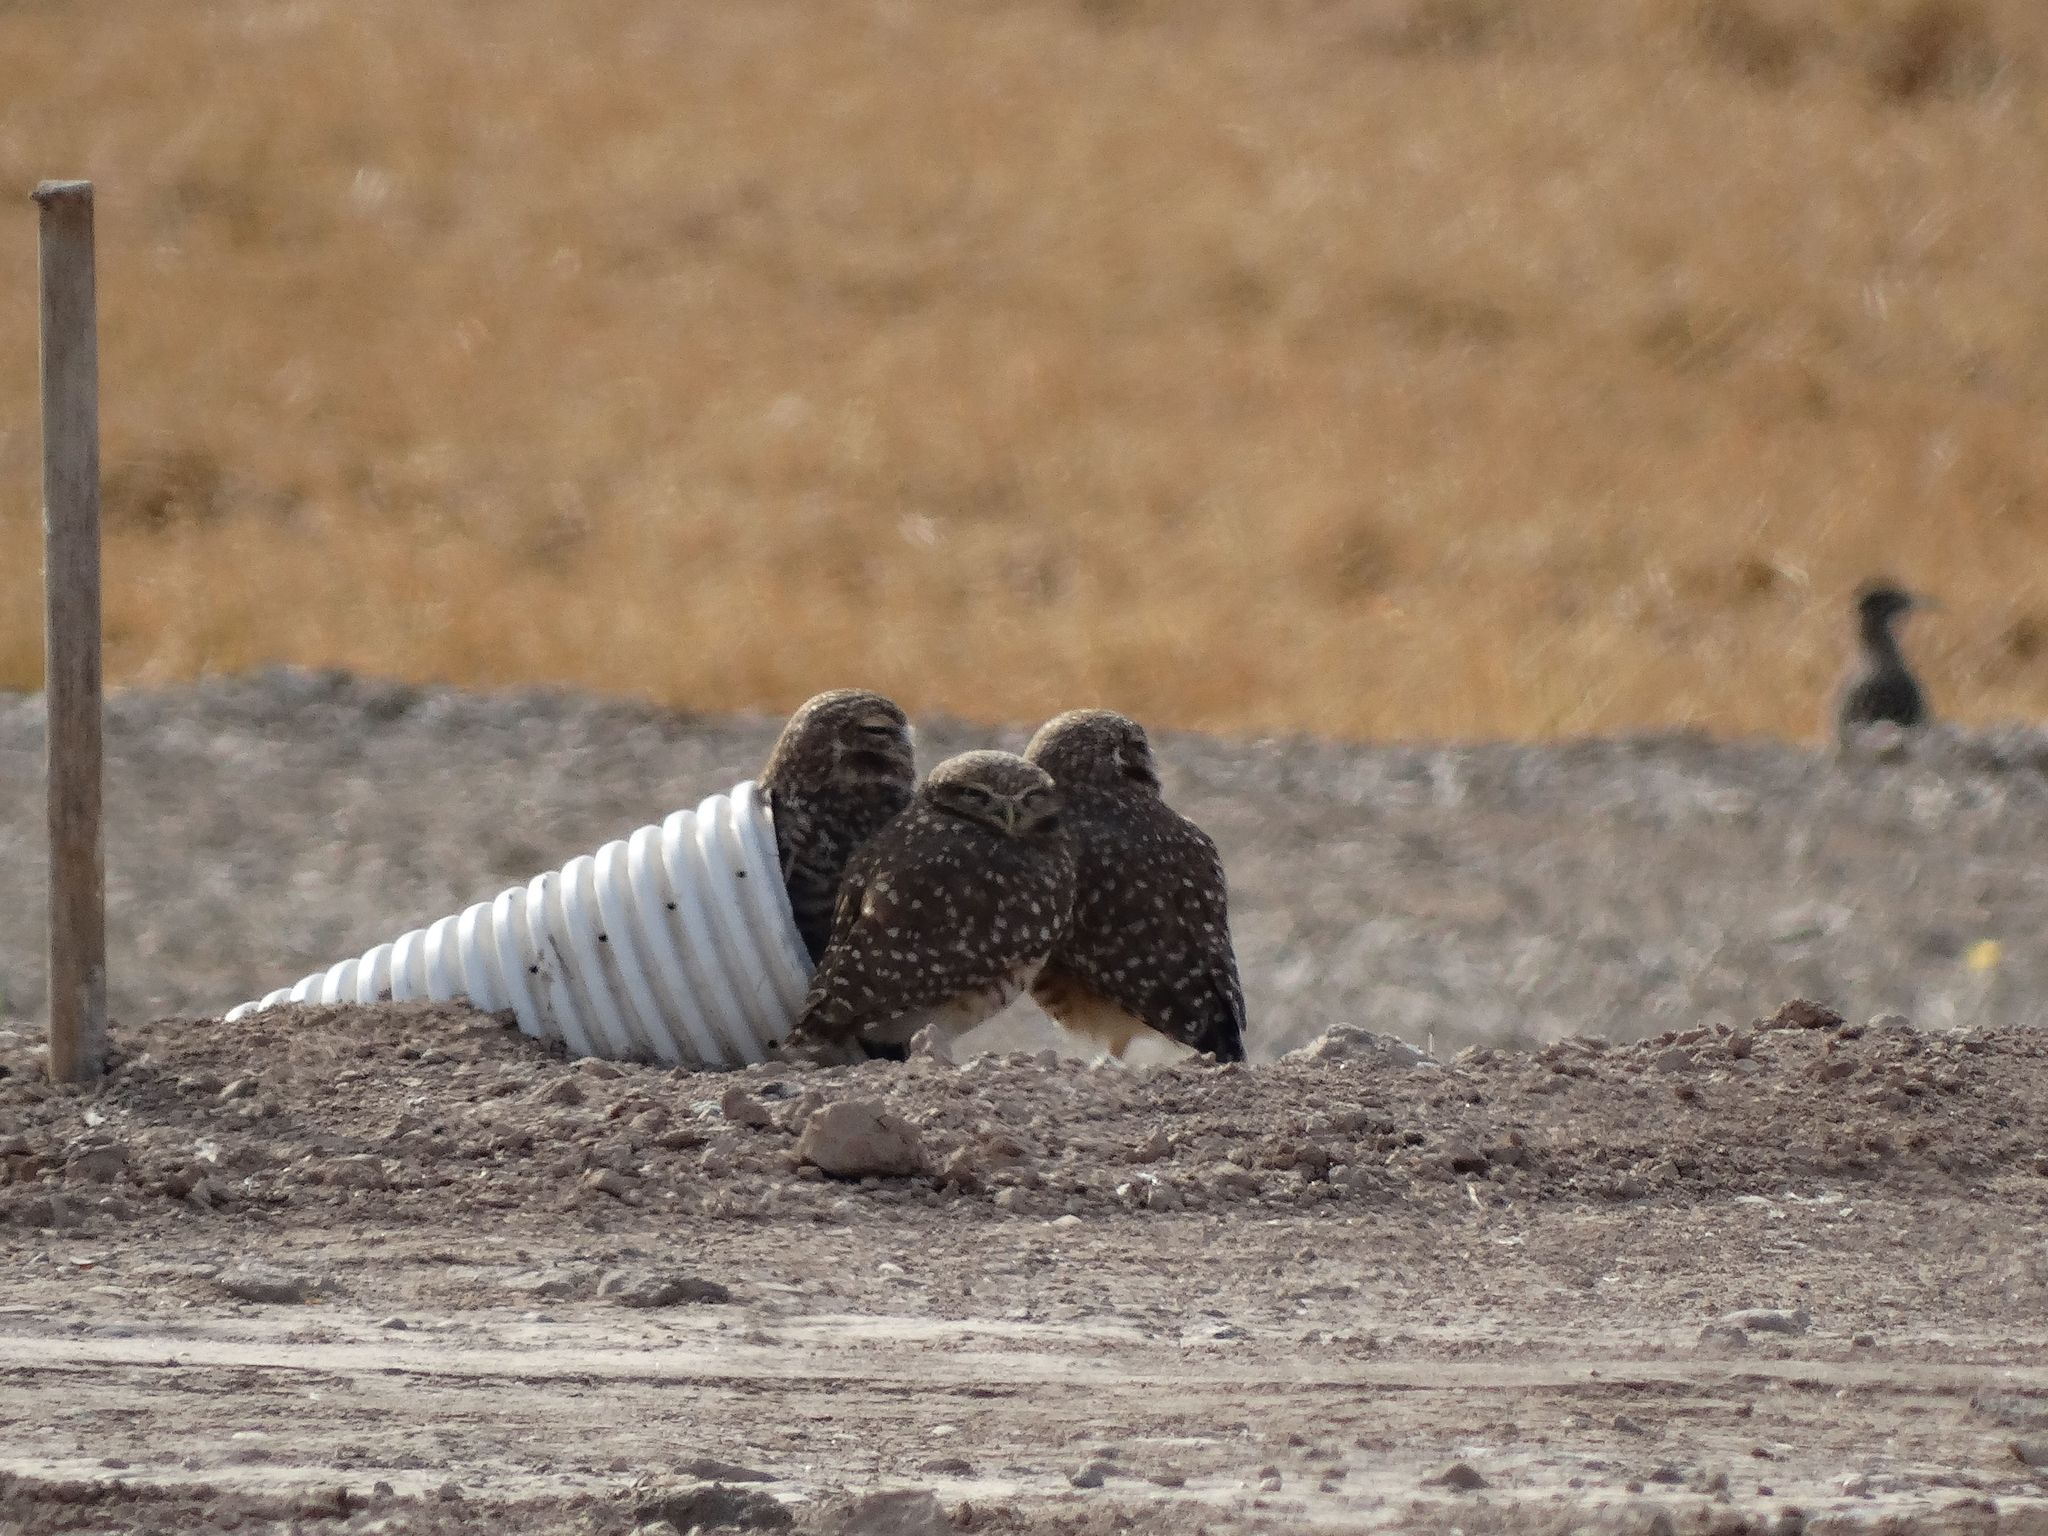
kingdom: Animalia
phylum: Chordata
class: Aves
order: Strigiformes
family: Strigidae
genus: Athene
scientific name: Athene cunicularia
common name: Burrowing owl
